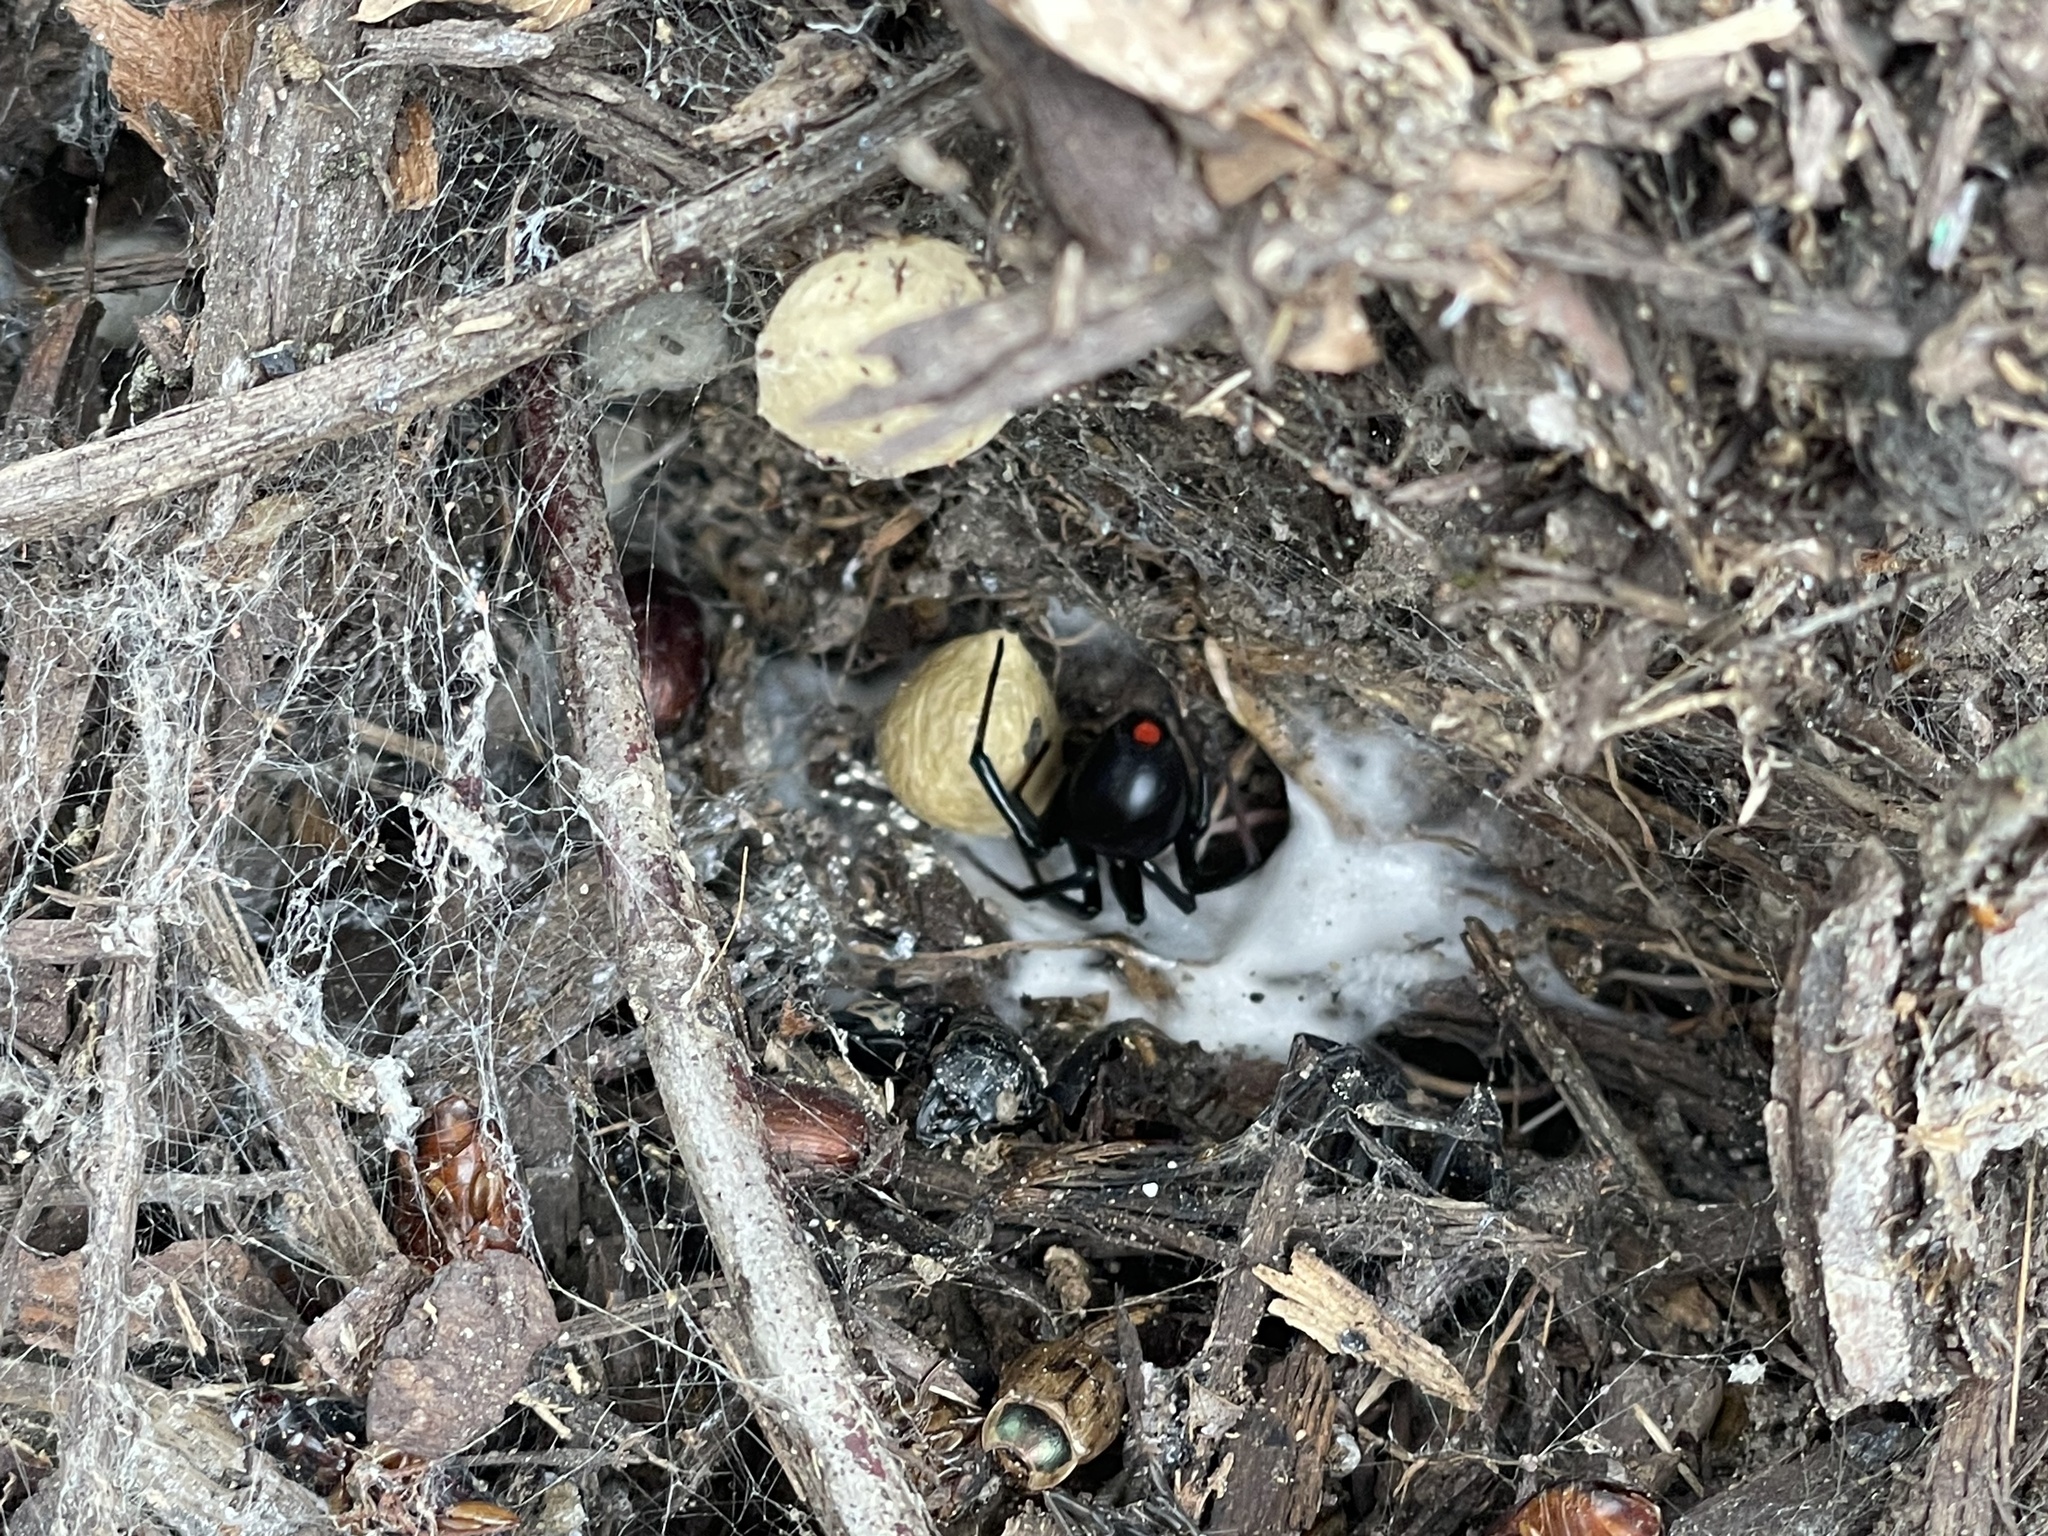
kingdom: Animalia
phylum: Arthropoda
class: Arachnida
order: Araneae
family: Theridiidae
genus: Latrodectus
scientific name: Latrodectus mactans
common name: Cobweb spiders
